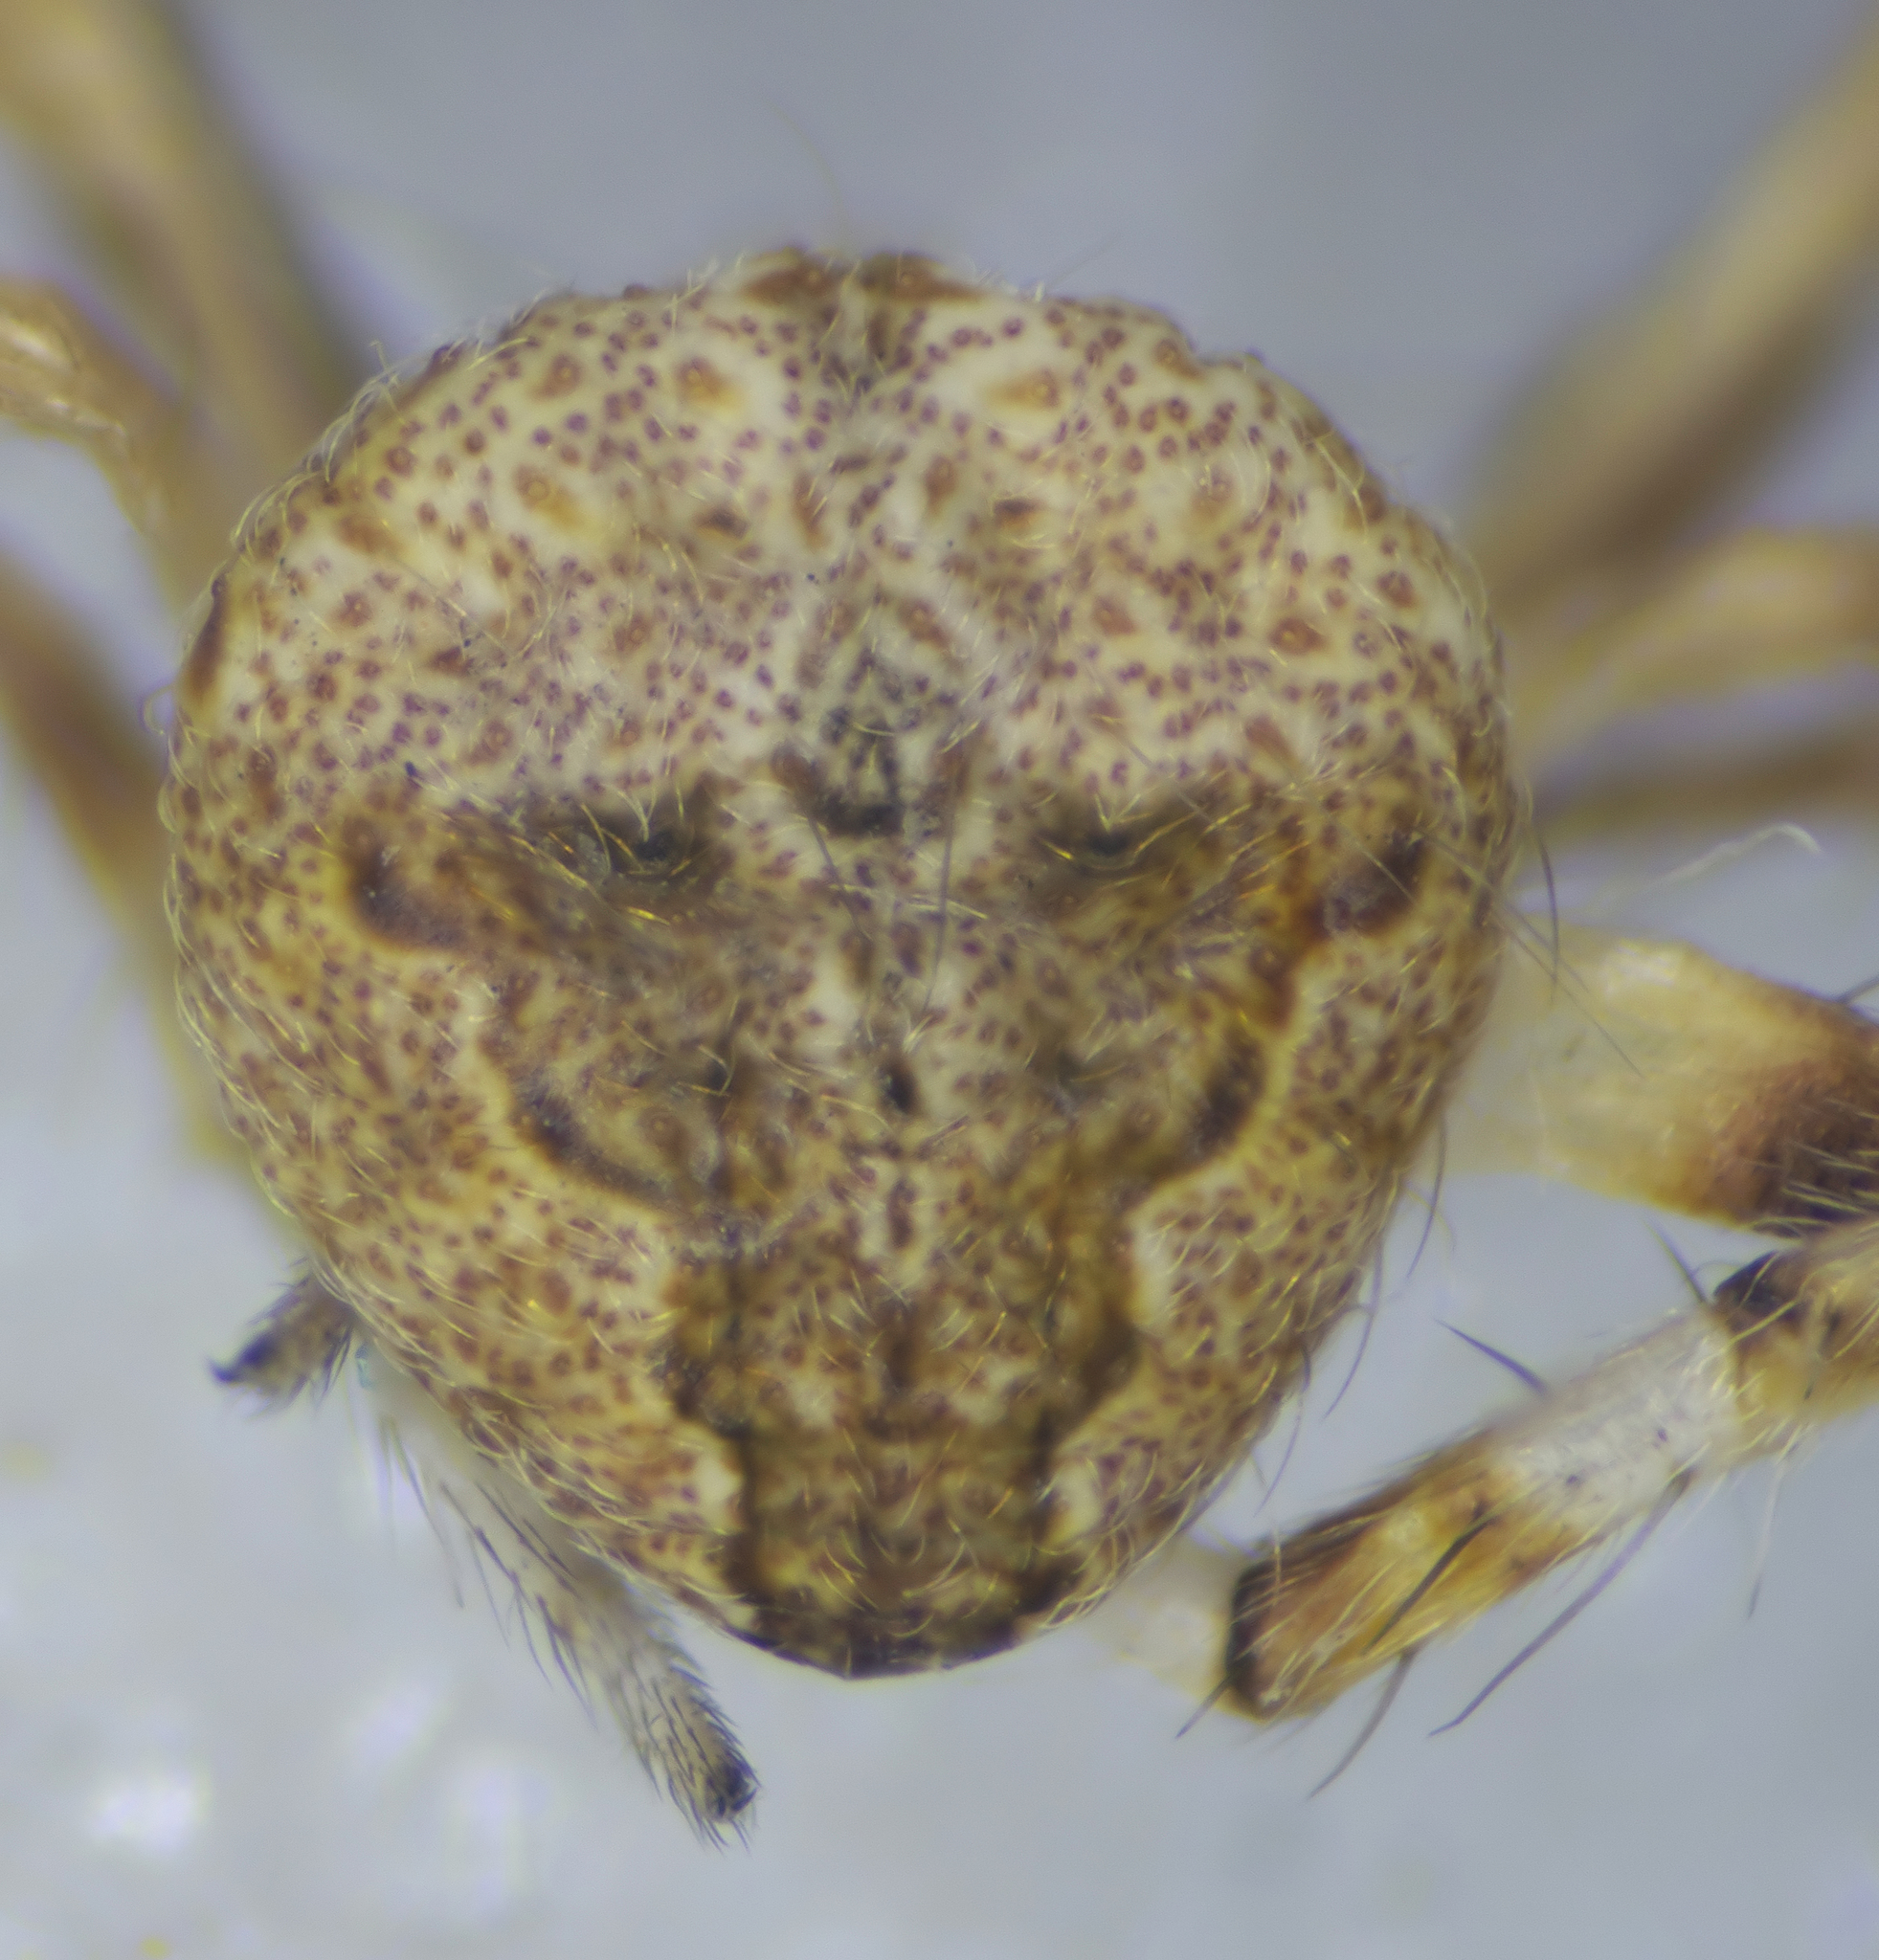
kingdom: Animalia
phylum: Arthropoda
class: Arachnida
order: Araneae
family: Araneidae
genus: Neoscona
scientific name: Neoscona subfusca
